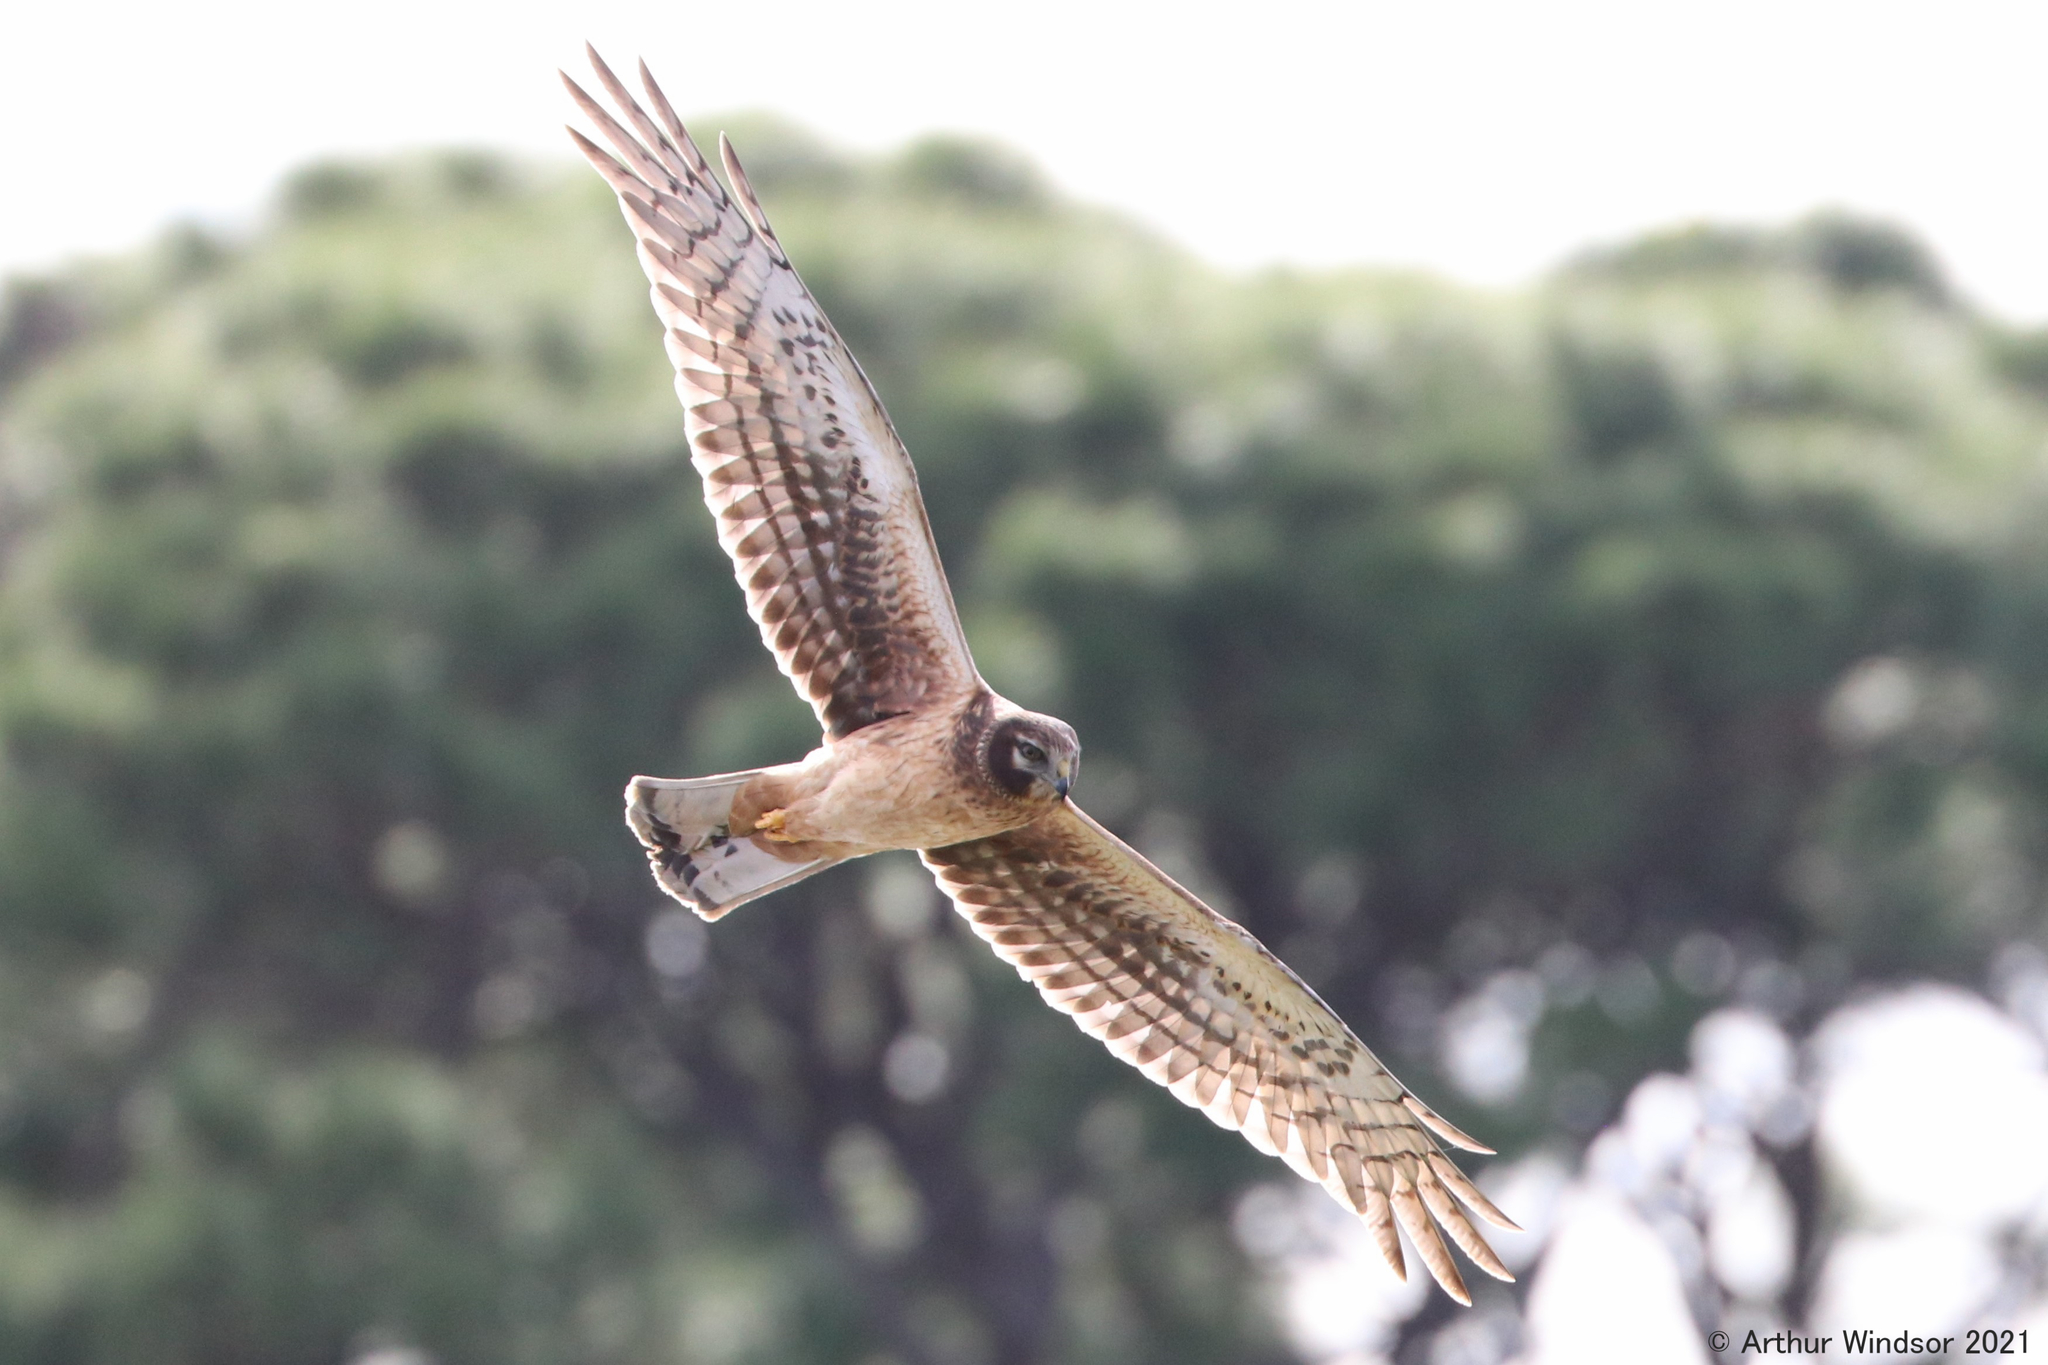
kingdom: Animalia
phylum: Chordata
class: Aves
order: Accipitriformes
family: Accipitridae
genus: Circus
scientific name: Circus cyaneus
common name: Hen harrier
